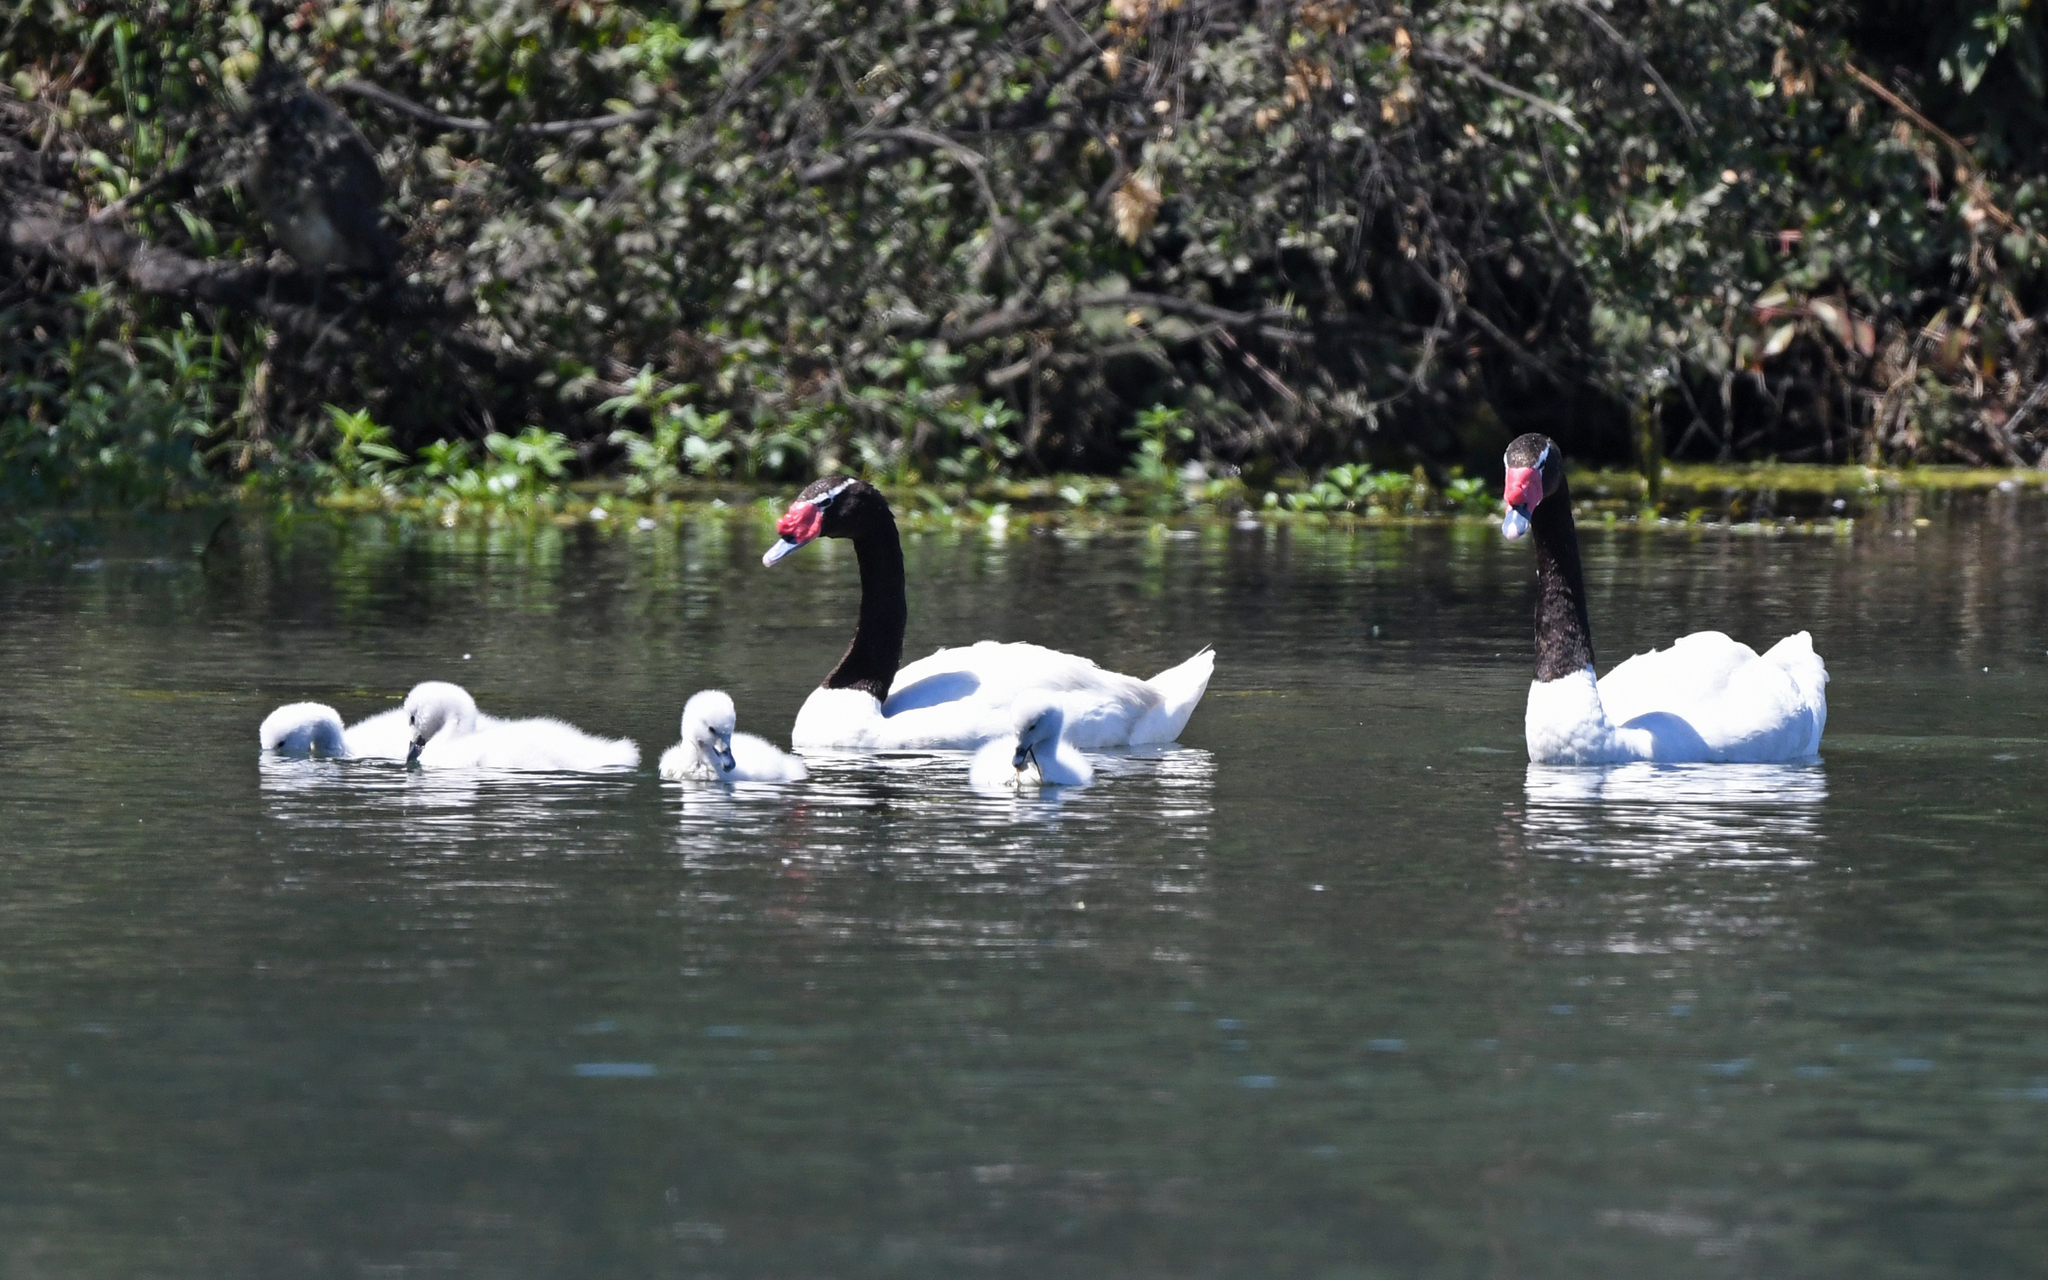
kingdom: Animalia
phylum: Chordata
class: Aves
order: Anseriformes
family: Anatidae
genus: Cygnus
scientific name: Cygnus melancoryphus
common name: Black-necked swan
